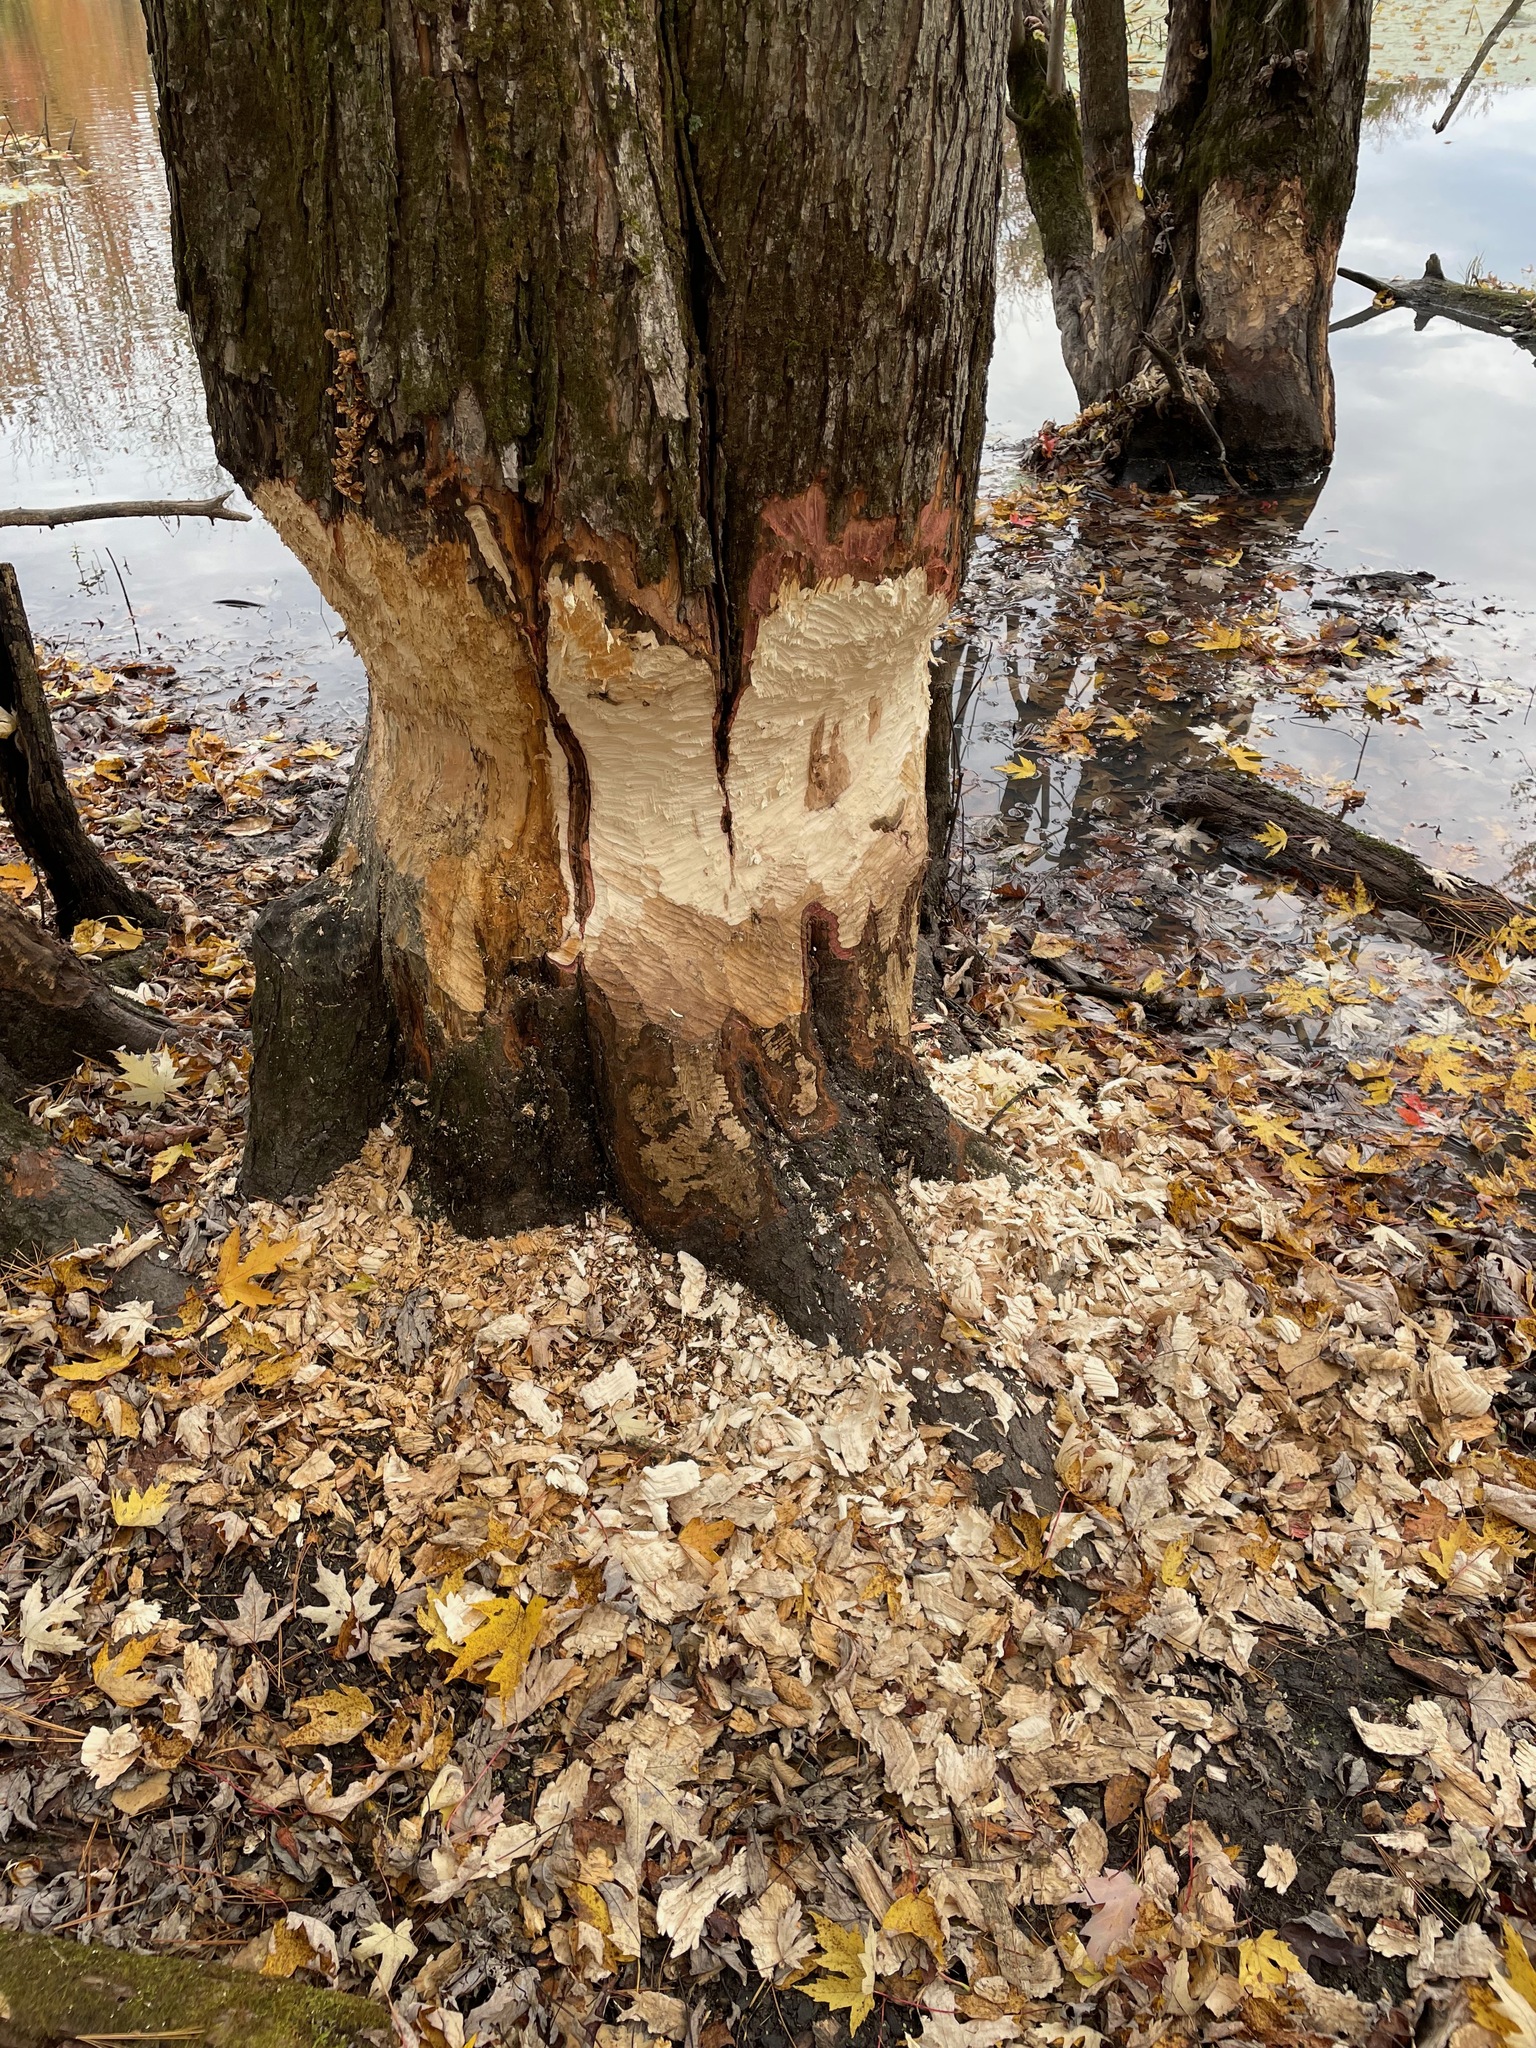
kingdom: Animalia
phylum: Chordata
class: Mammalia
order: Rodentia
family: Castoridae
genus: Castor
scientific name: Castor canadensis
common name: American beaver
